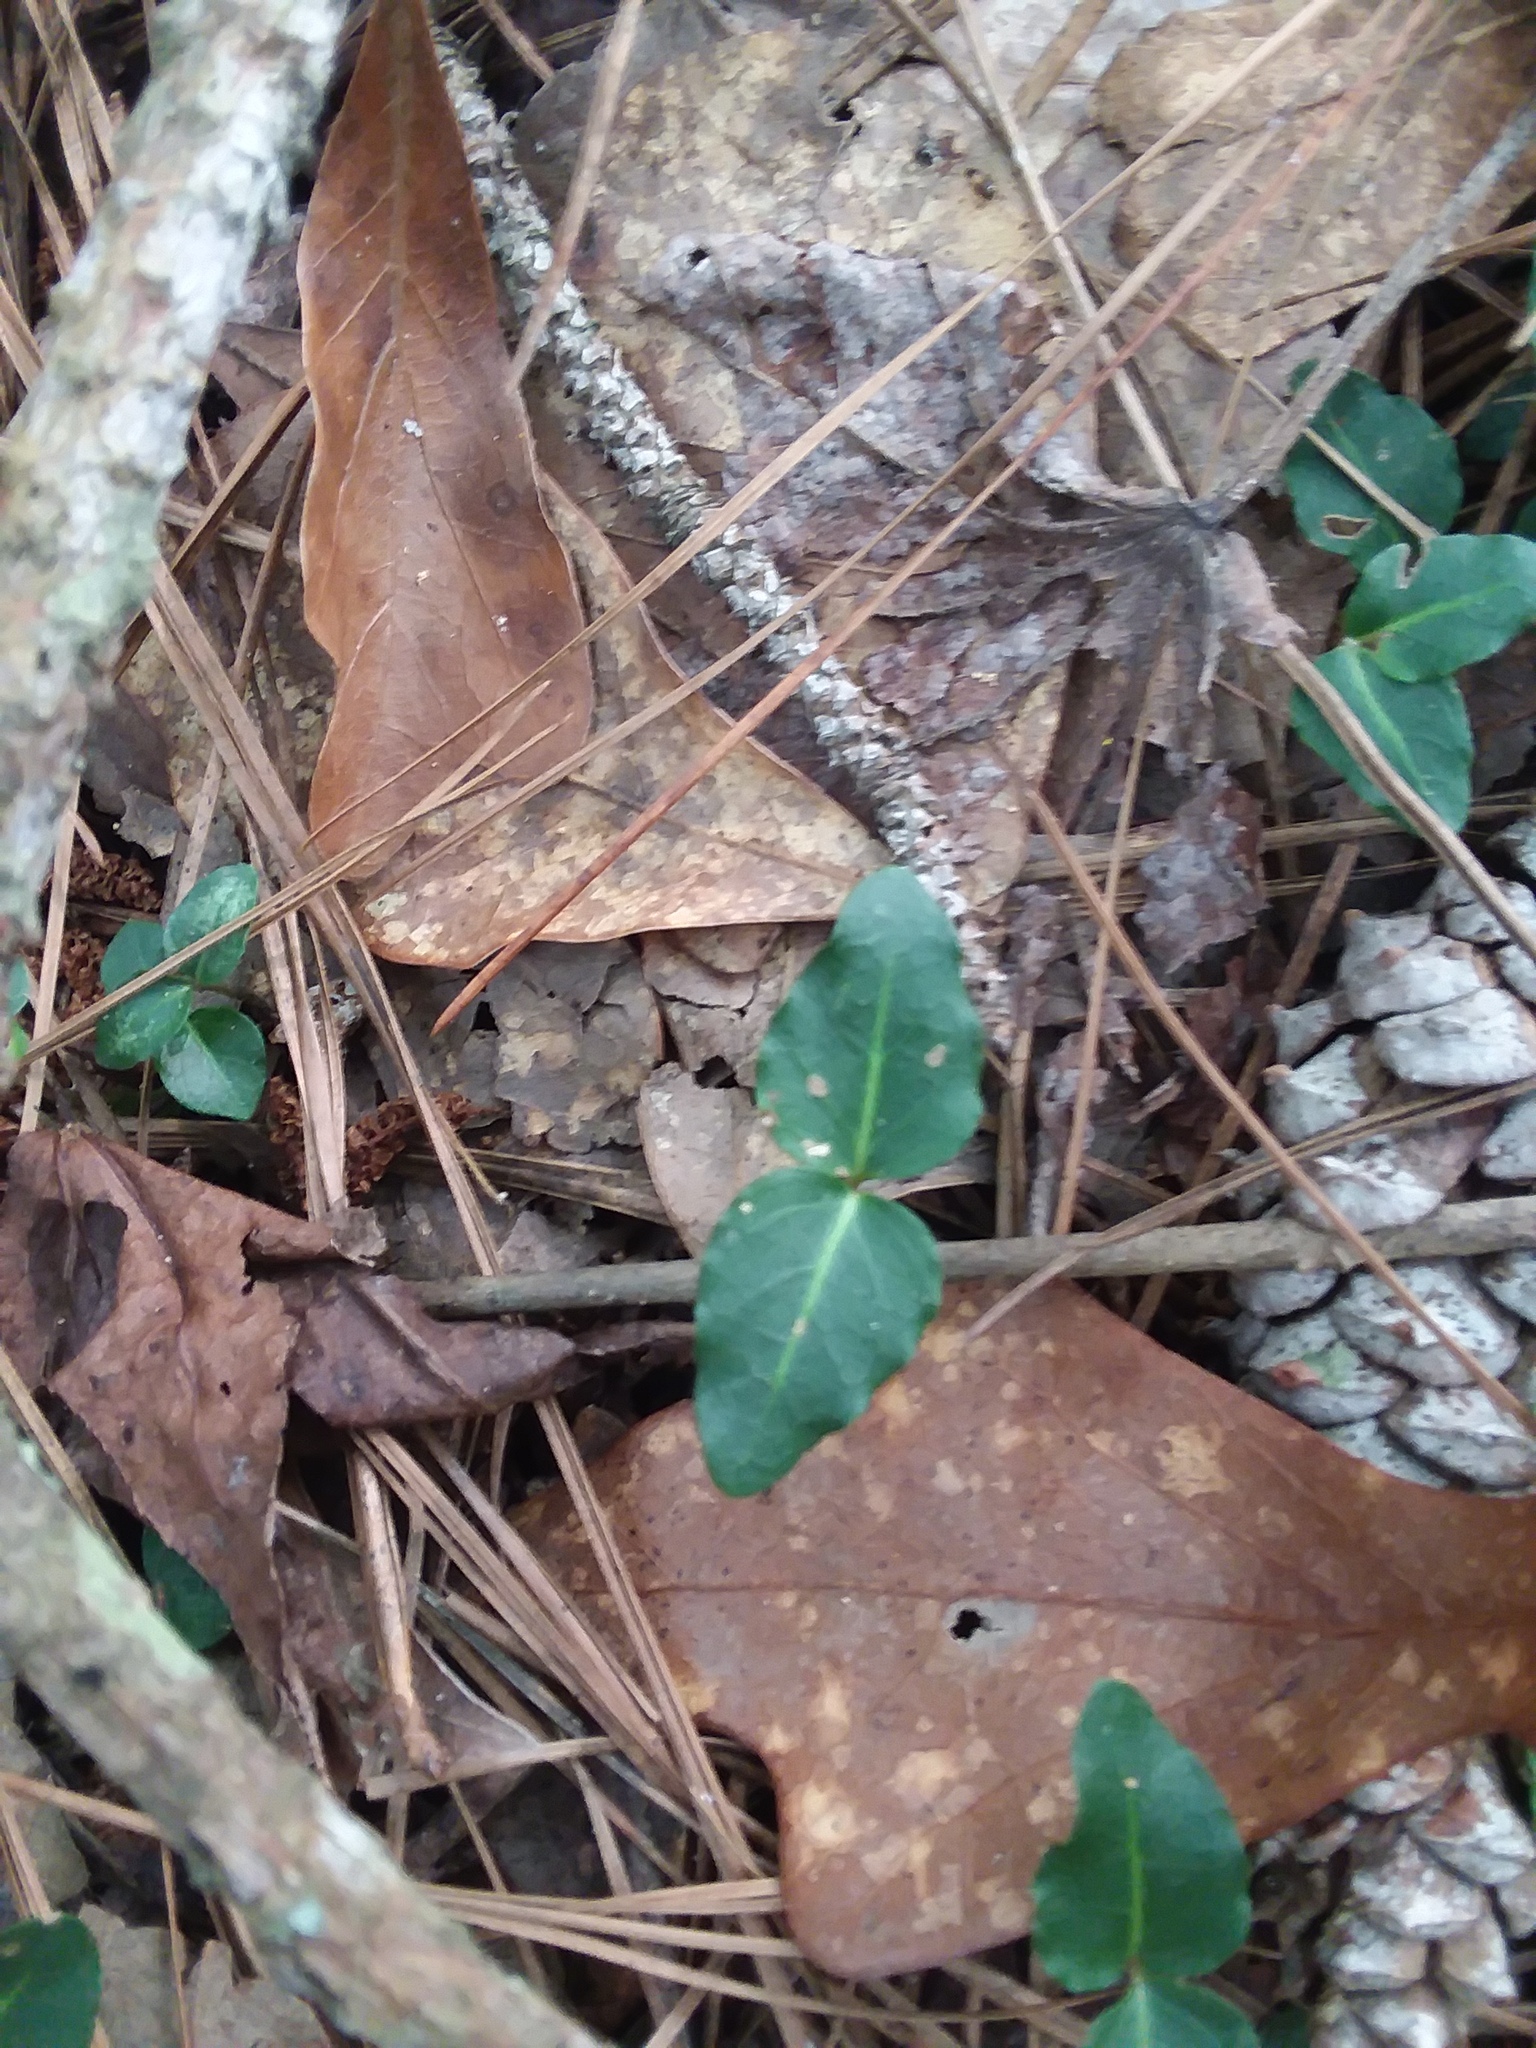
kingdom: Plantae
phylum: Tracheophyta
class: Magnoliopsida
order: Gentianales
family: Rubiaceae
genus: Mitchella
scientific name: Mitchella repens
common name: Partridge-berry
